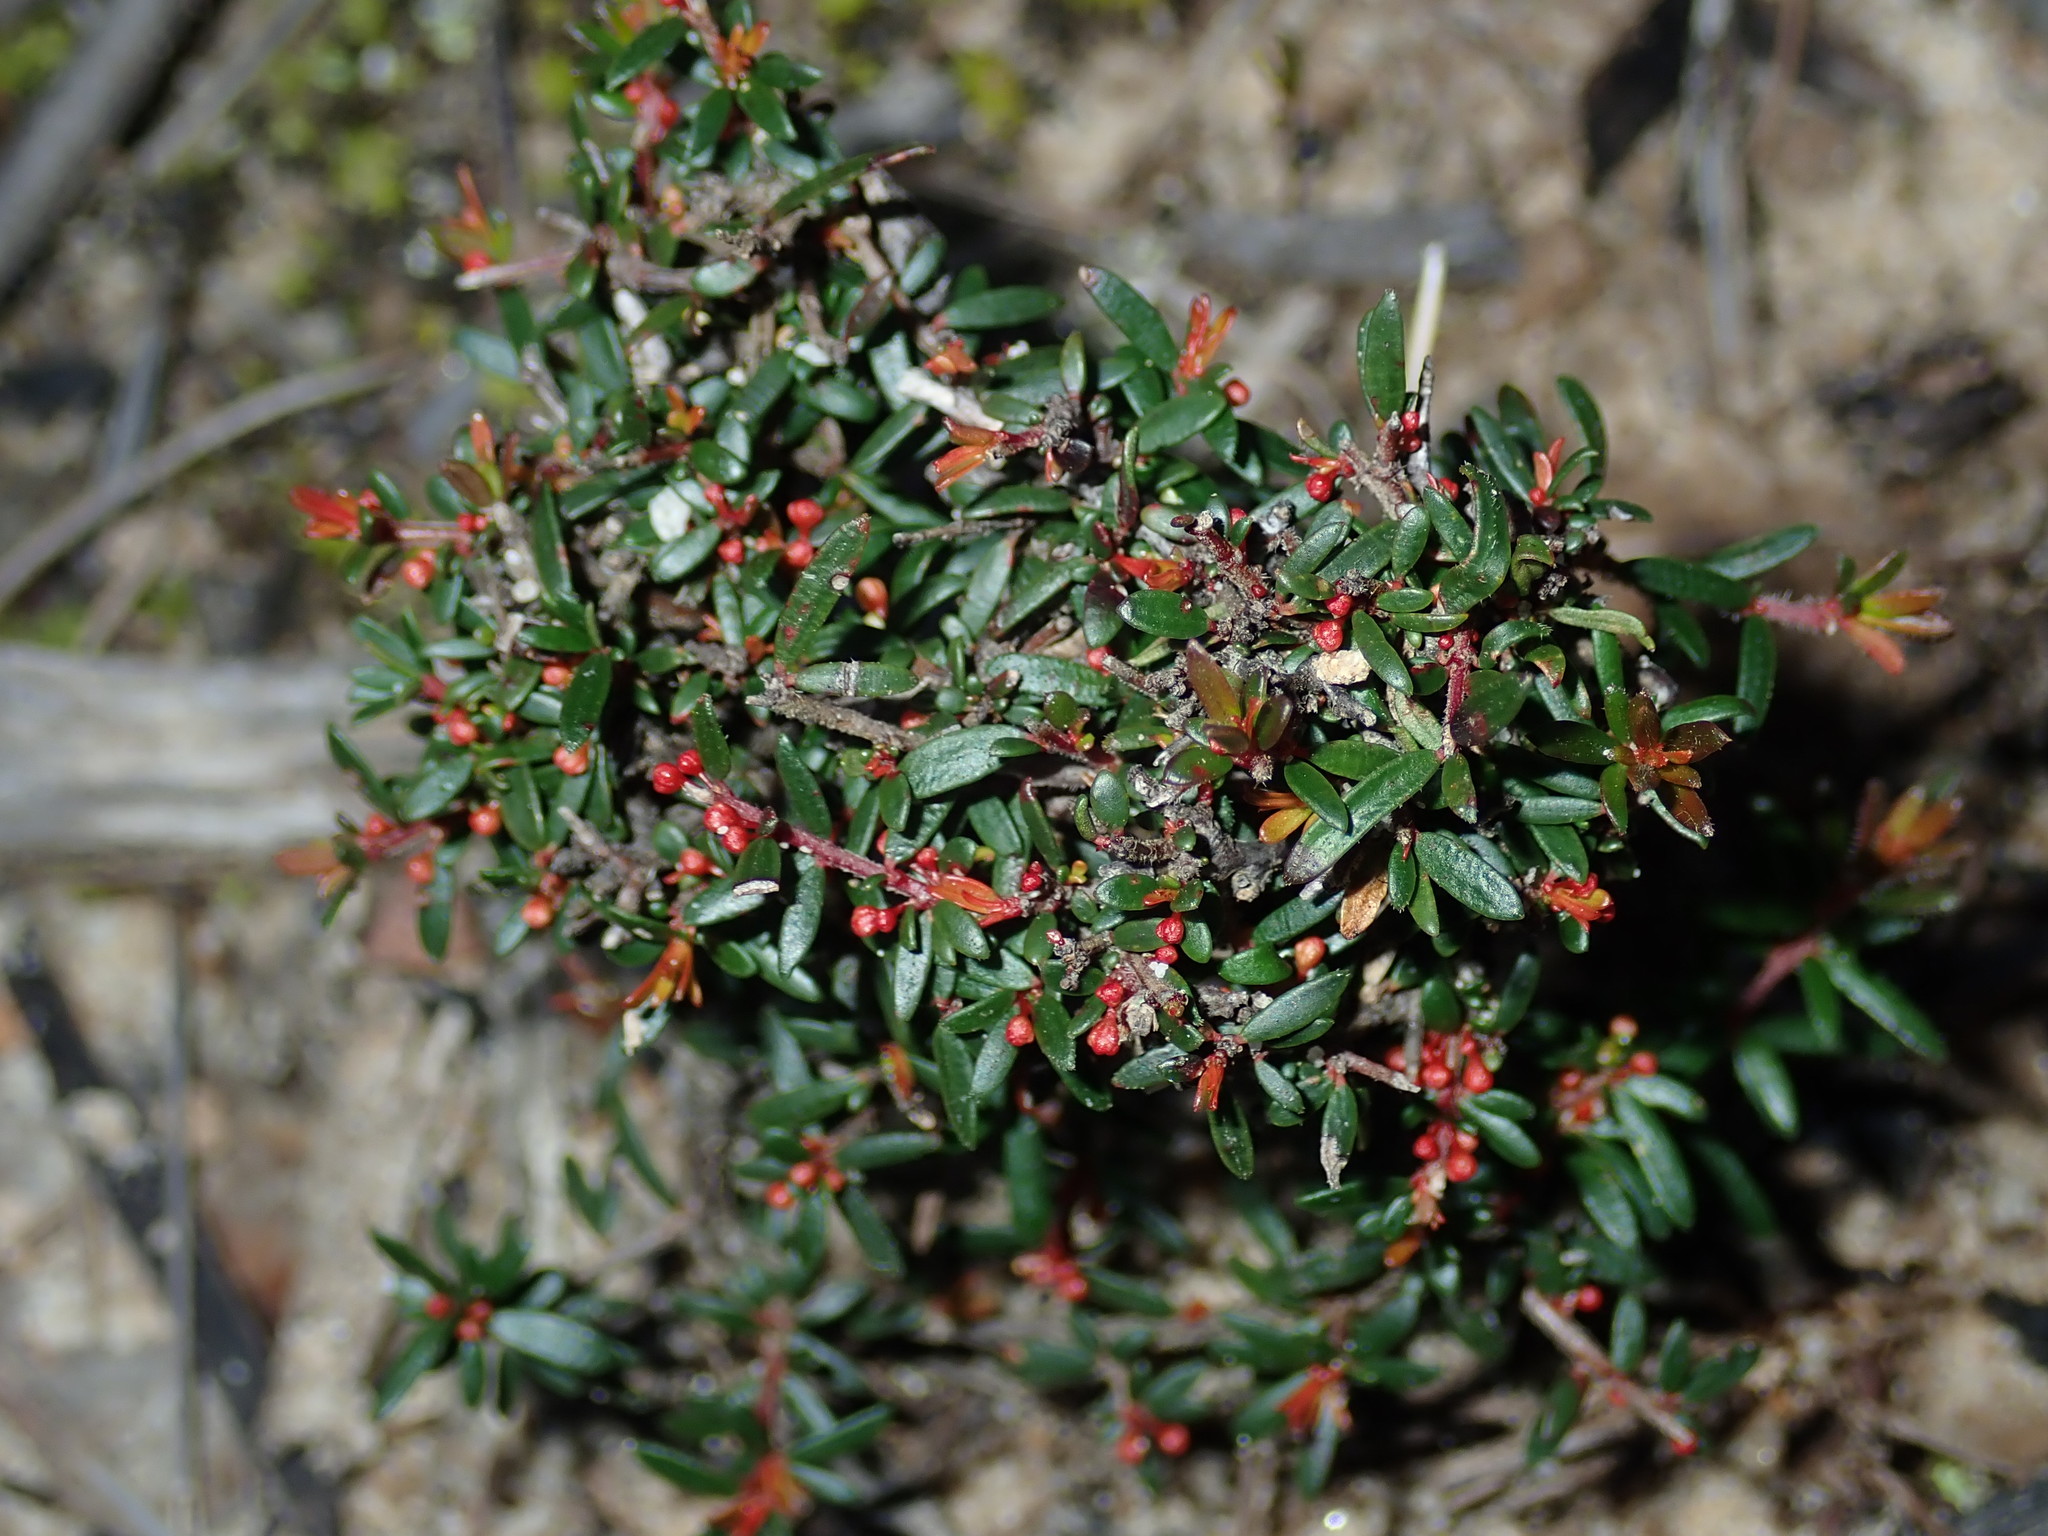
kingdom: Plantae
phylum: Tracheophyta
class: Magnoliopsida
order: Malpighiales
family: Picrodendraceae
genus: Micrantheum
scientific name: Micrantheum ericoides
